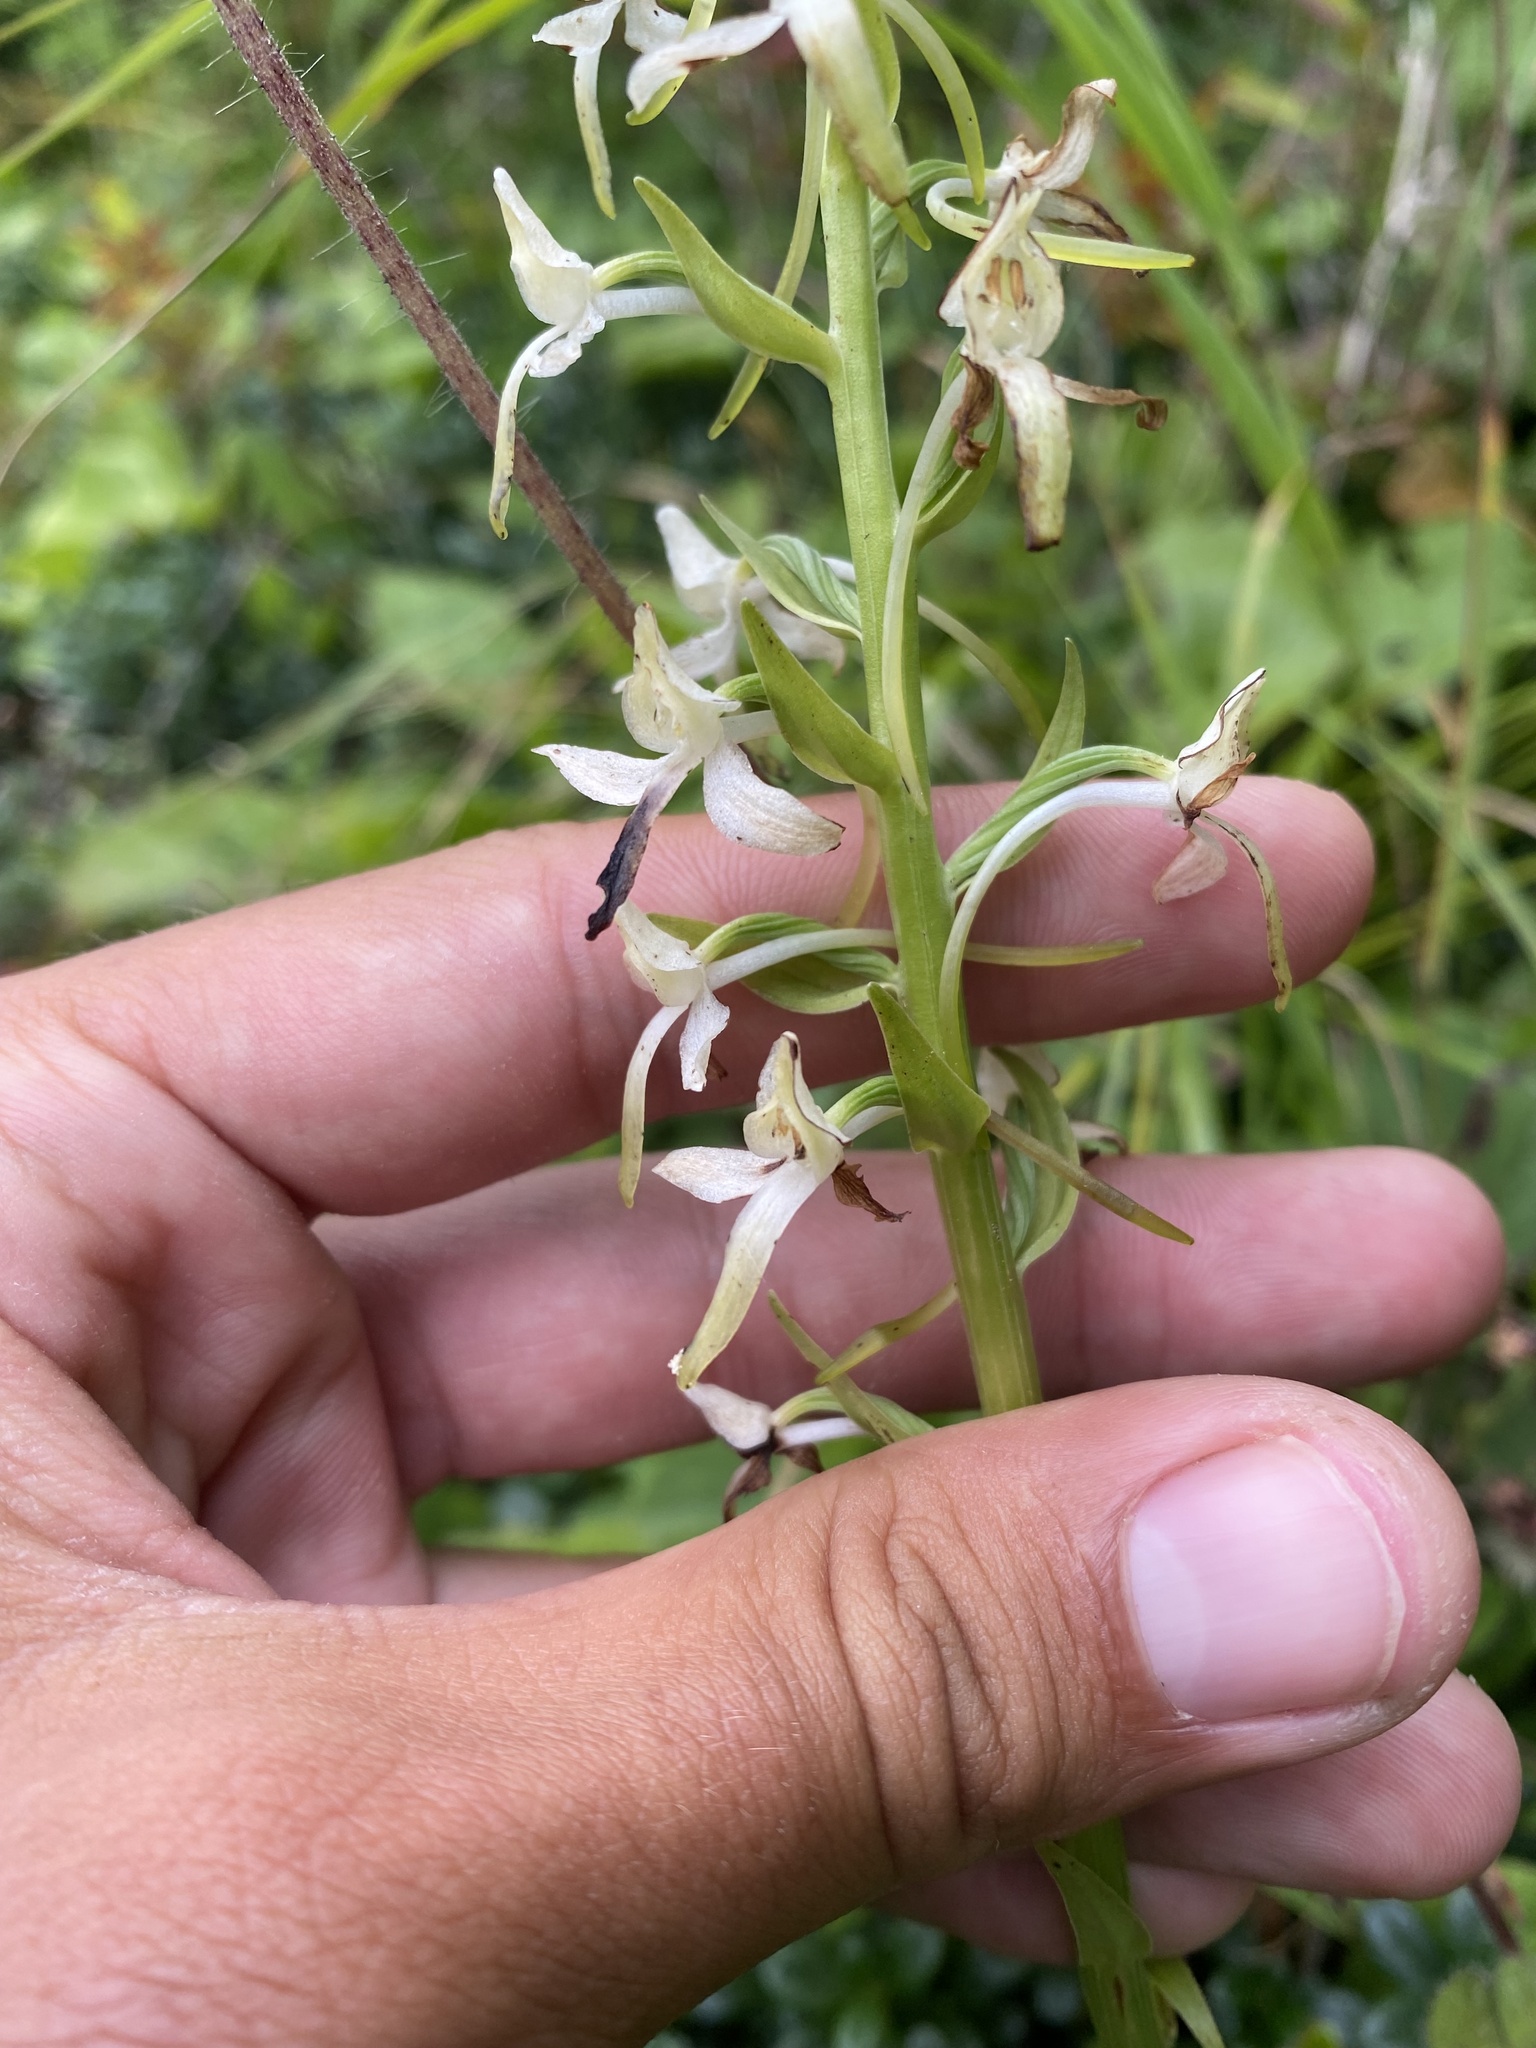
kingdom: Plantae
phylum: Tracheophyta
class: Liliopsida
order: Asparagales
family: Orchidaceae
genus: Platanthera
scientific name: Platanthera metabifolia
